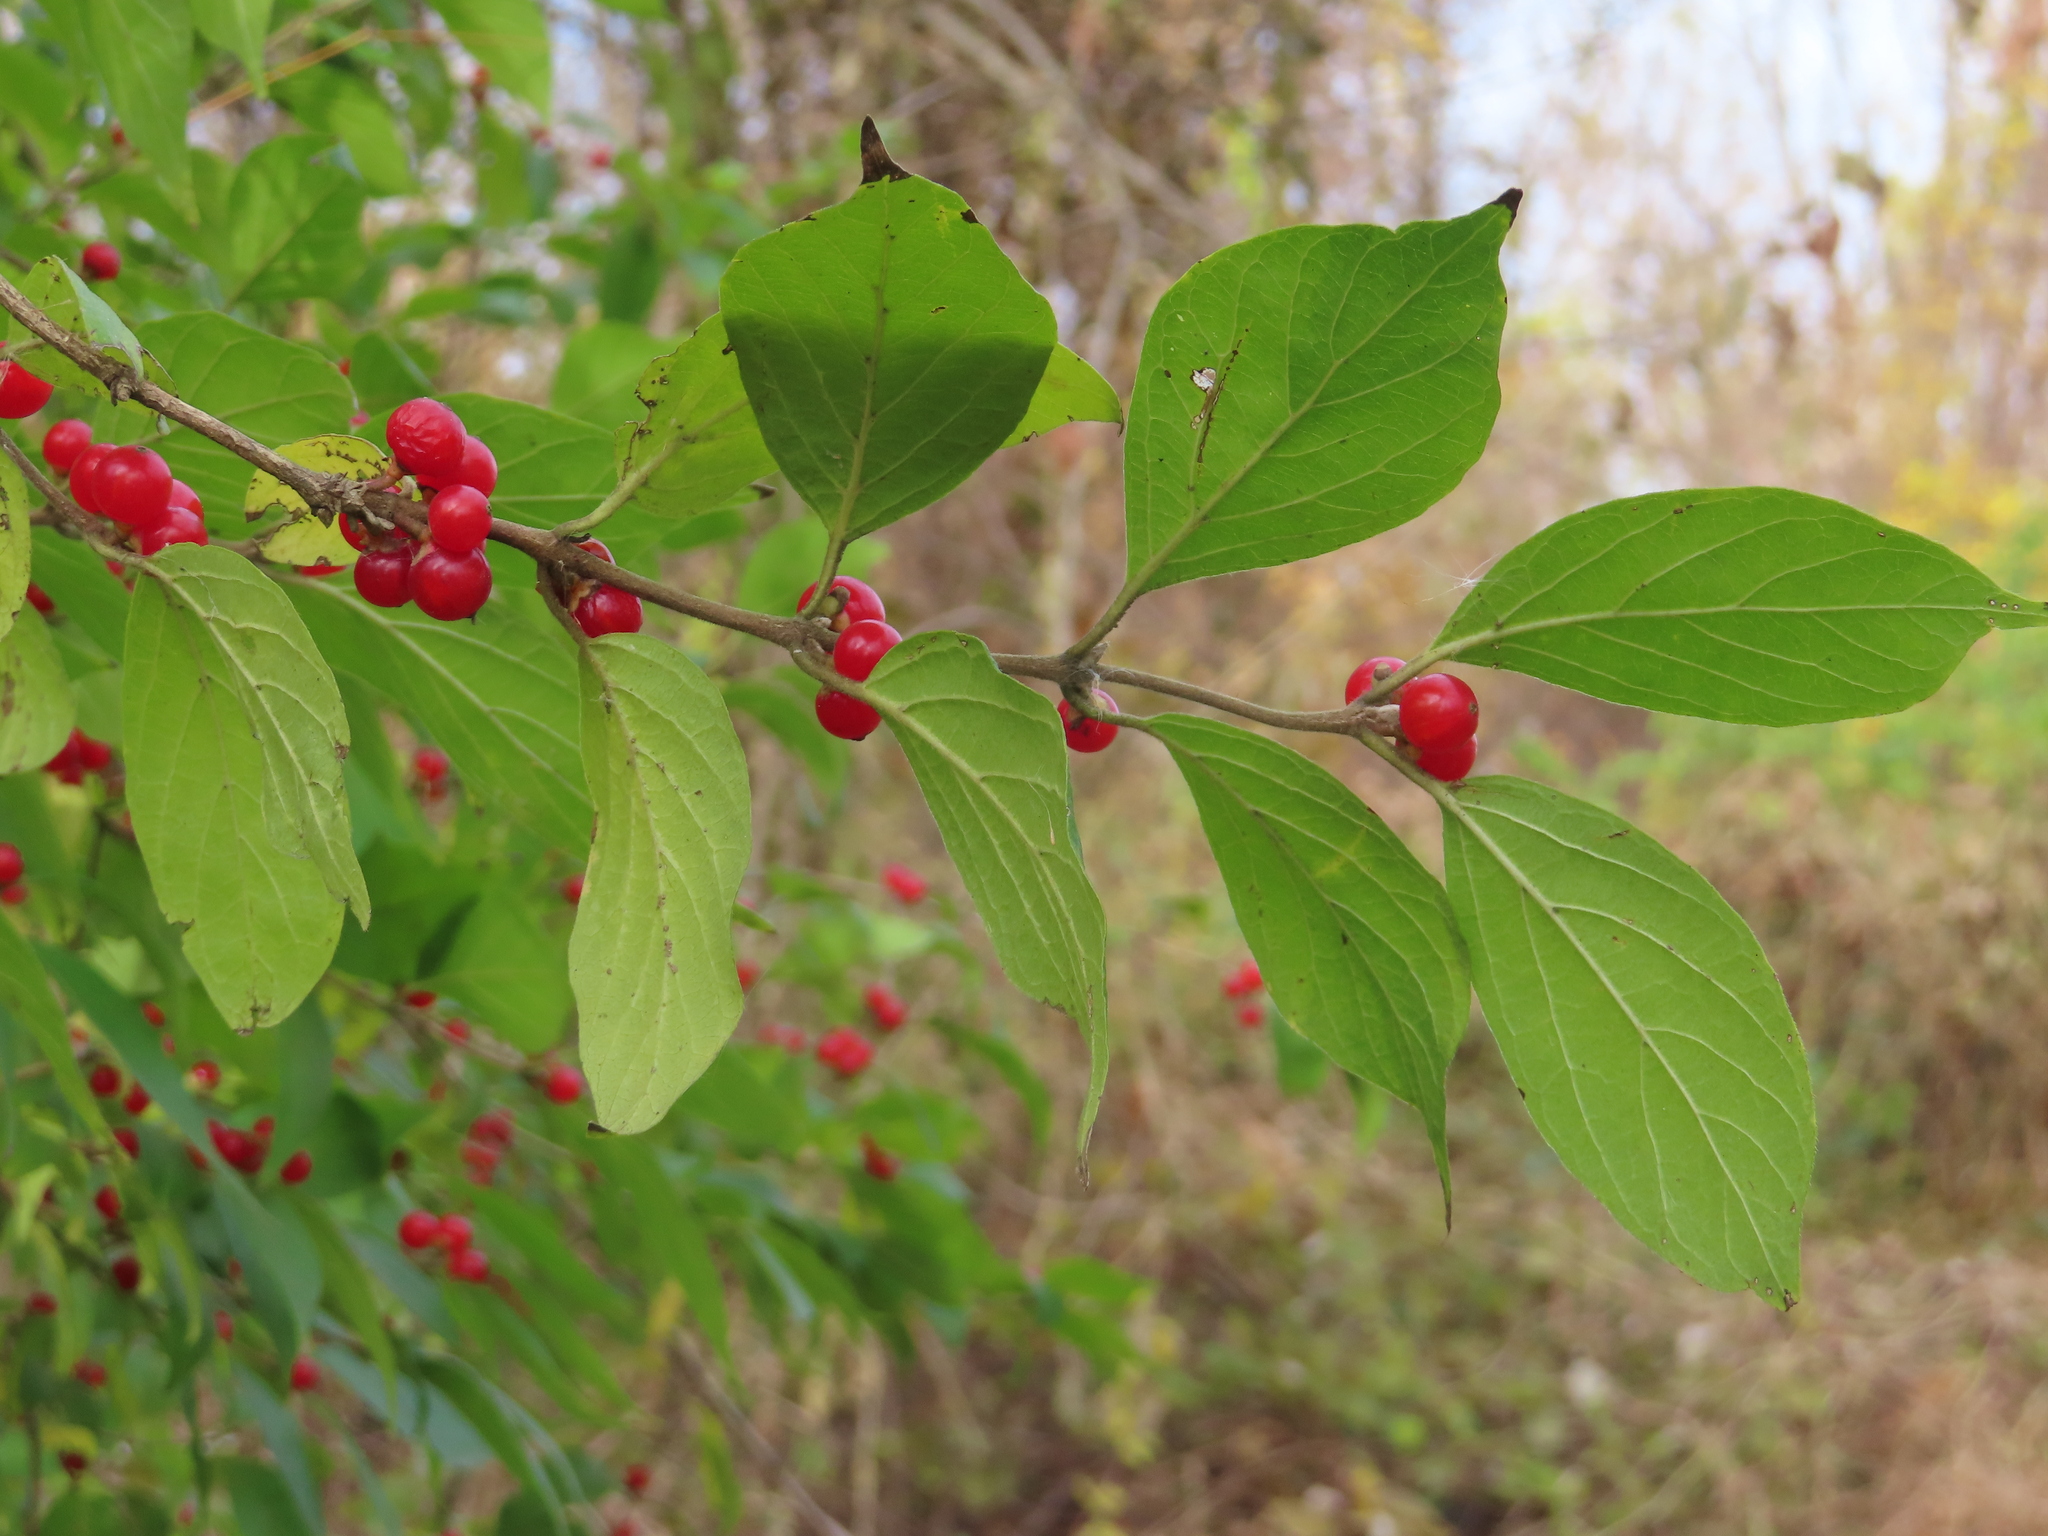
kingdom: Plantae
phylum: Tracheophyta
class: Magnoliopsida
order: Dipsacales
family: Caprifoliaceae
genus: Lonicera
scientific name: Lonicera maackii
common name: Amur honeysuckle
